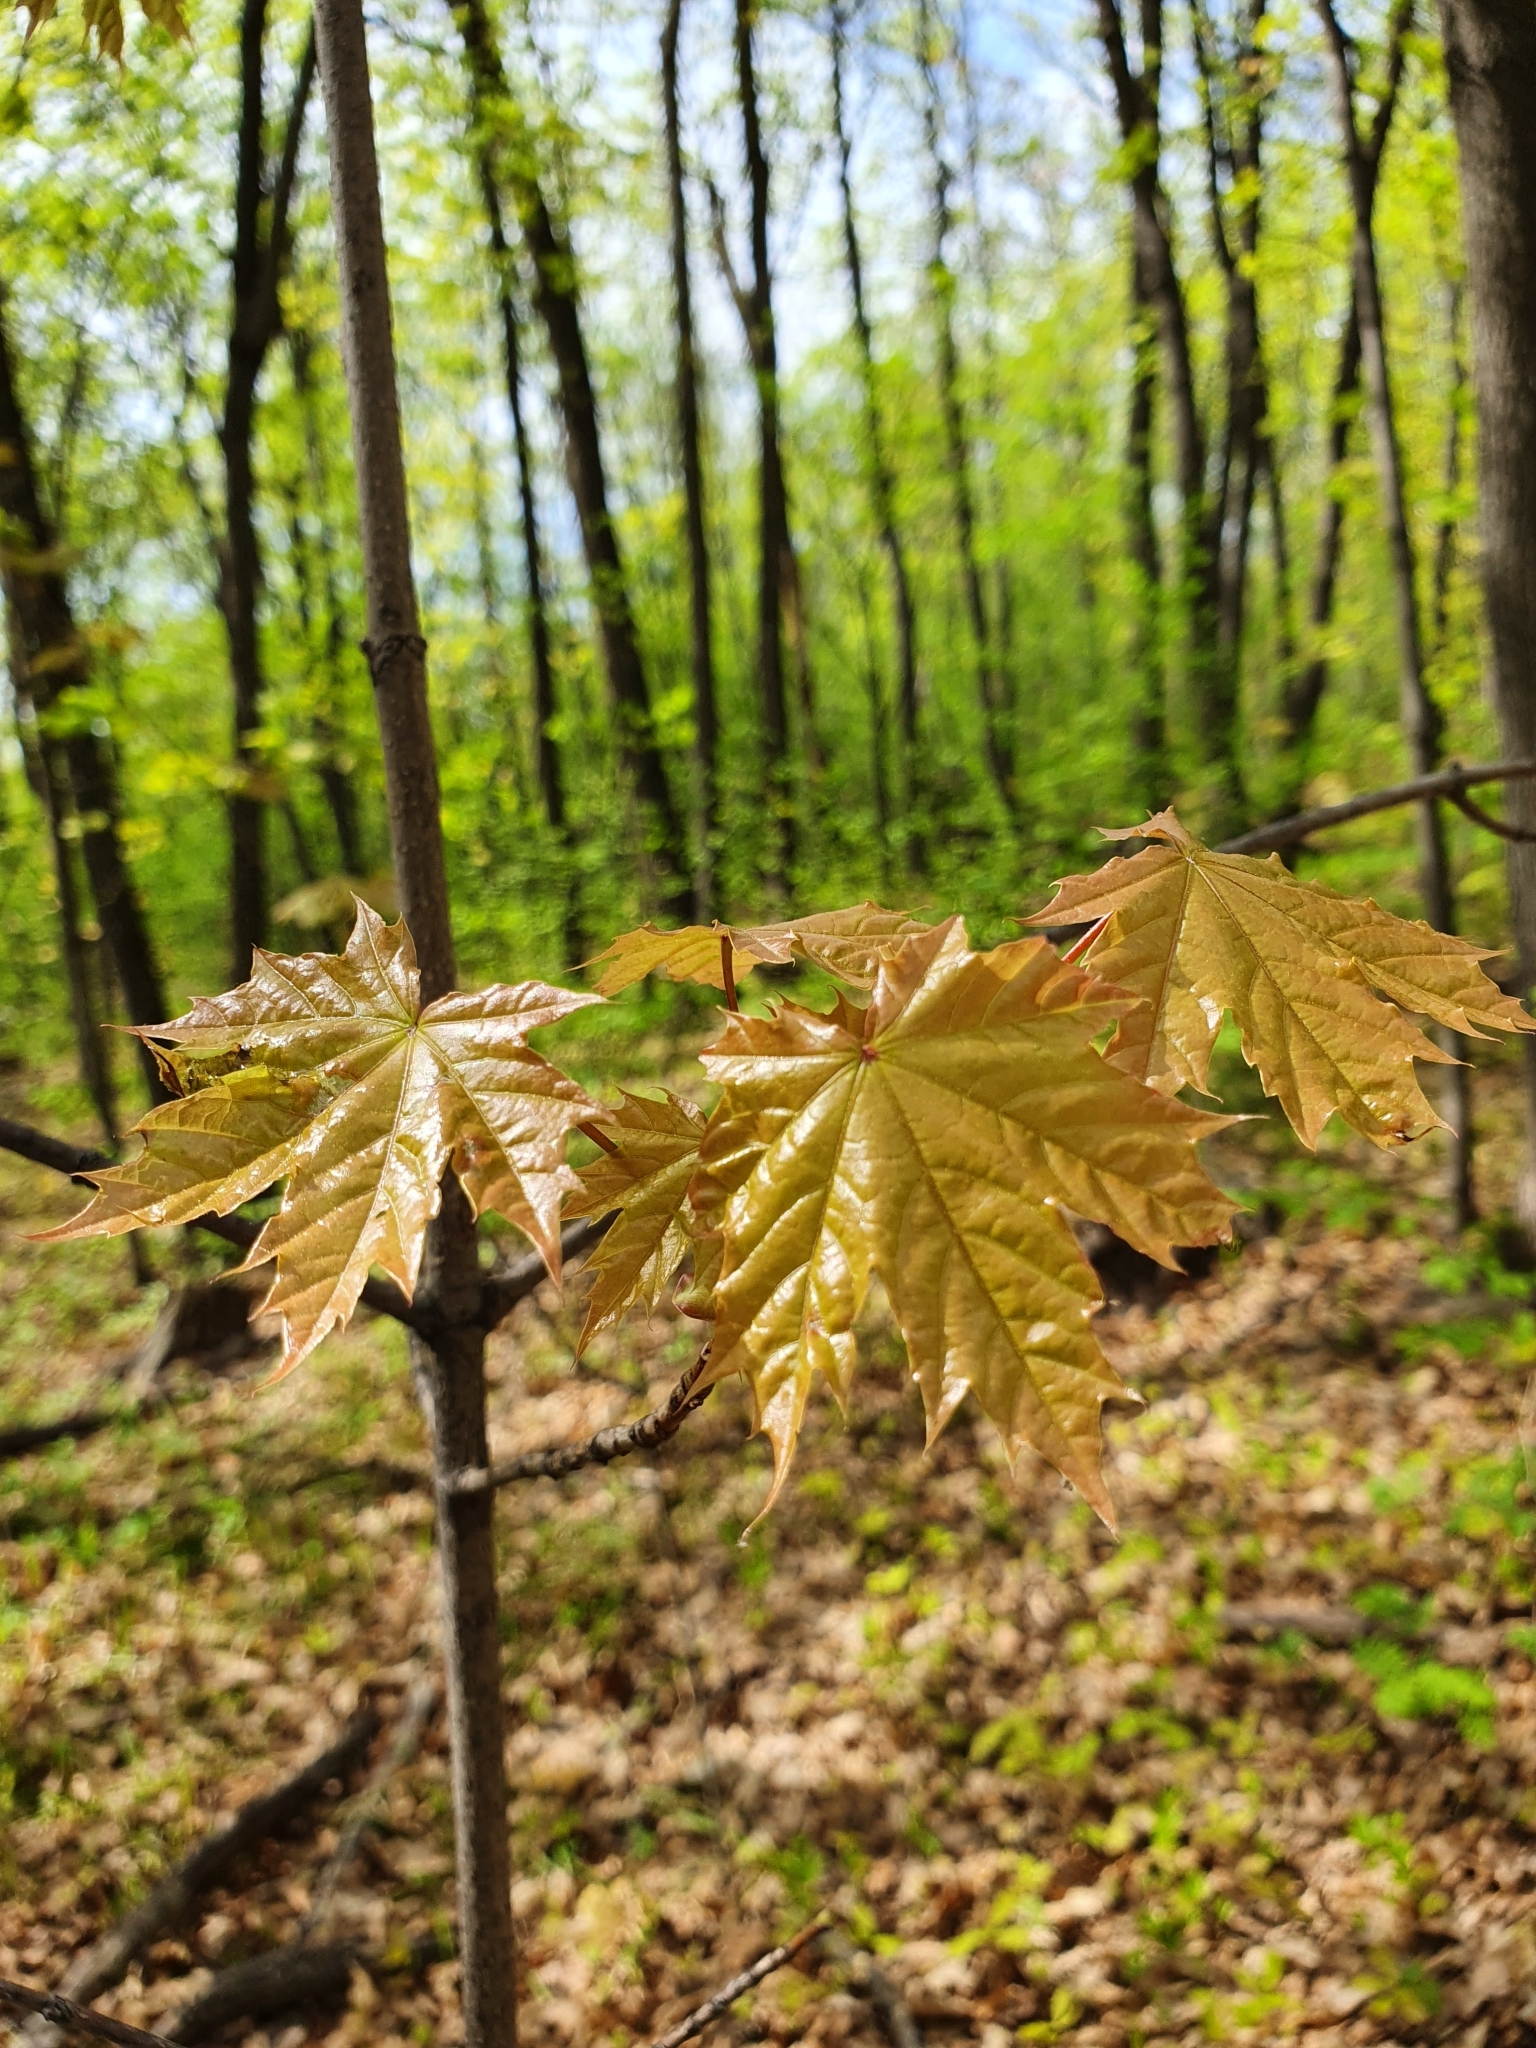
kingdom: Plantae
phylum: Tracheophyta
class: Magnoliopsida
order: Sapindales
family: Sapindaceae
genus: Acer
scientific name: Acer platanoides
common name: Norway maple
